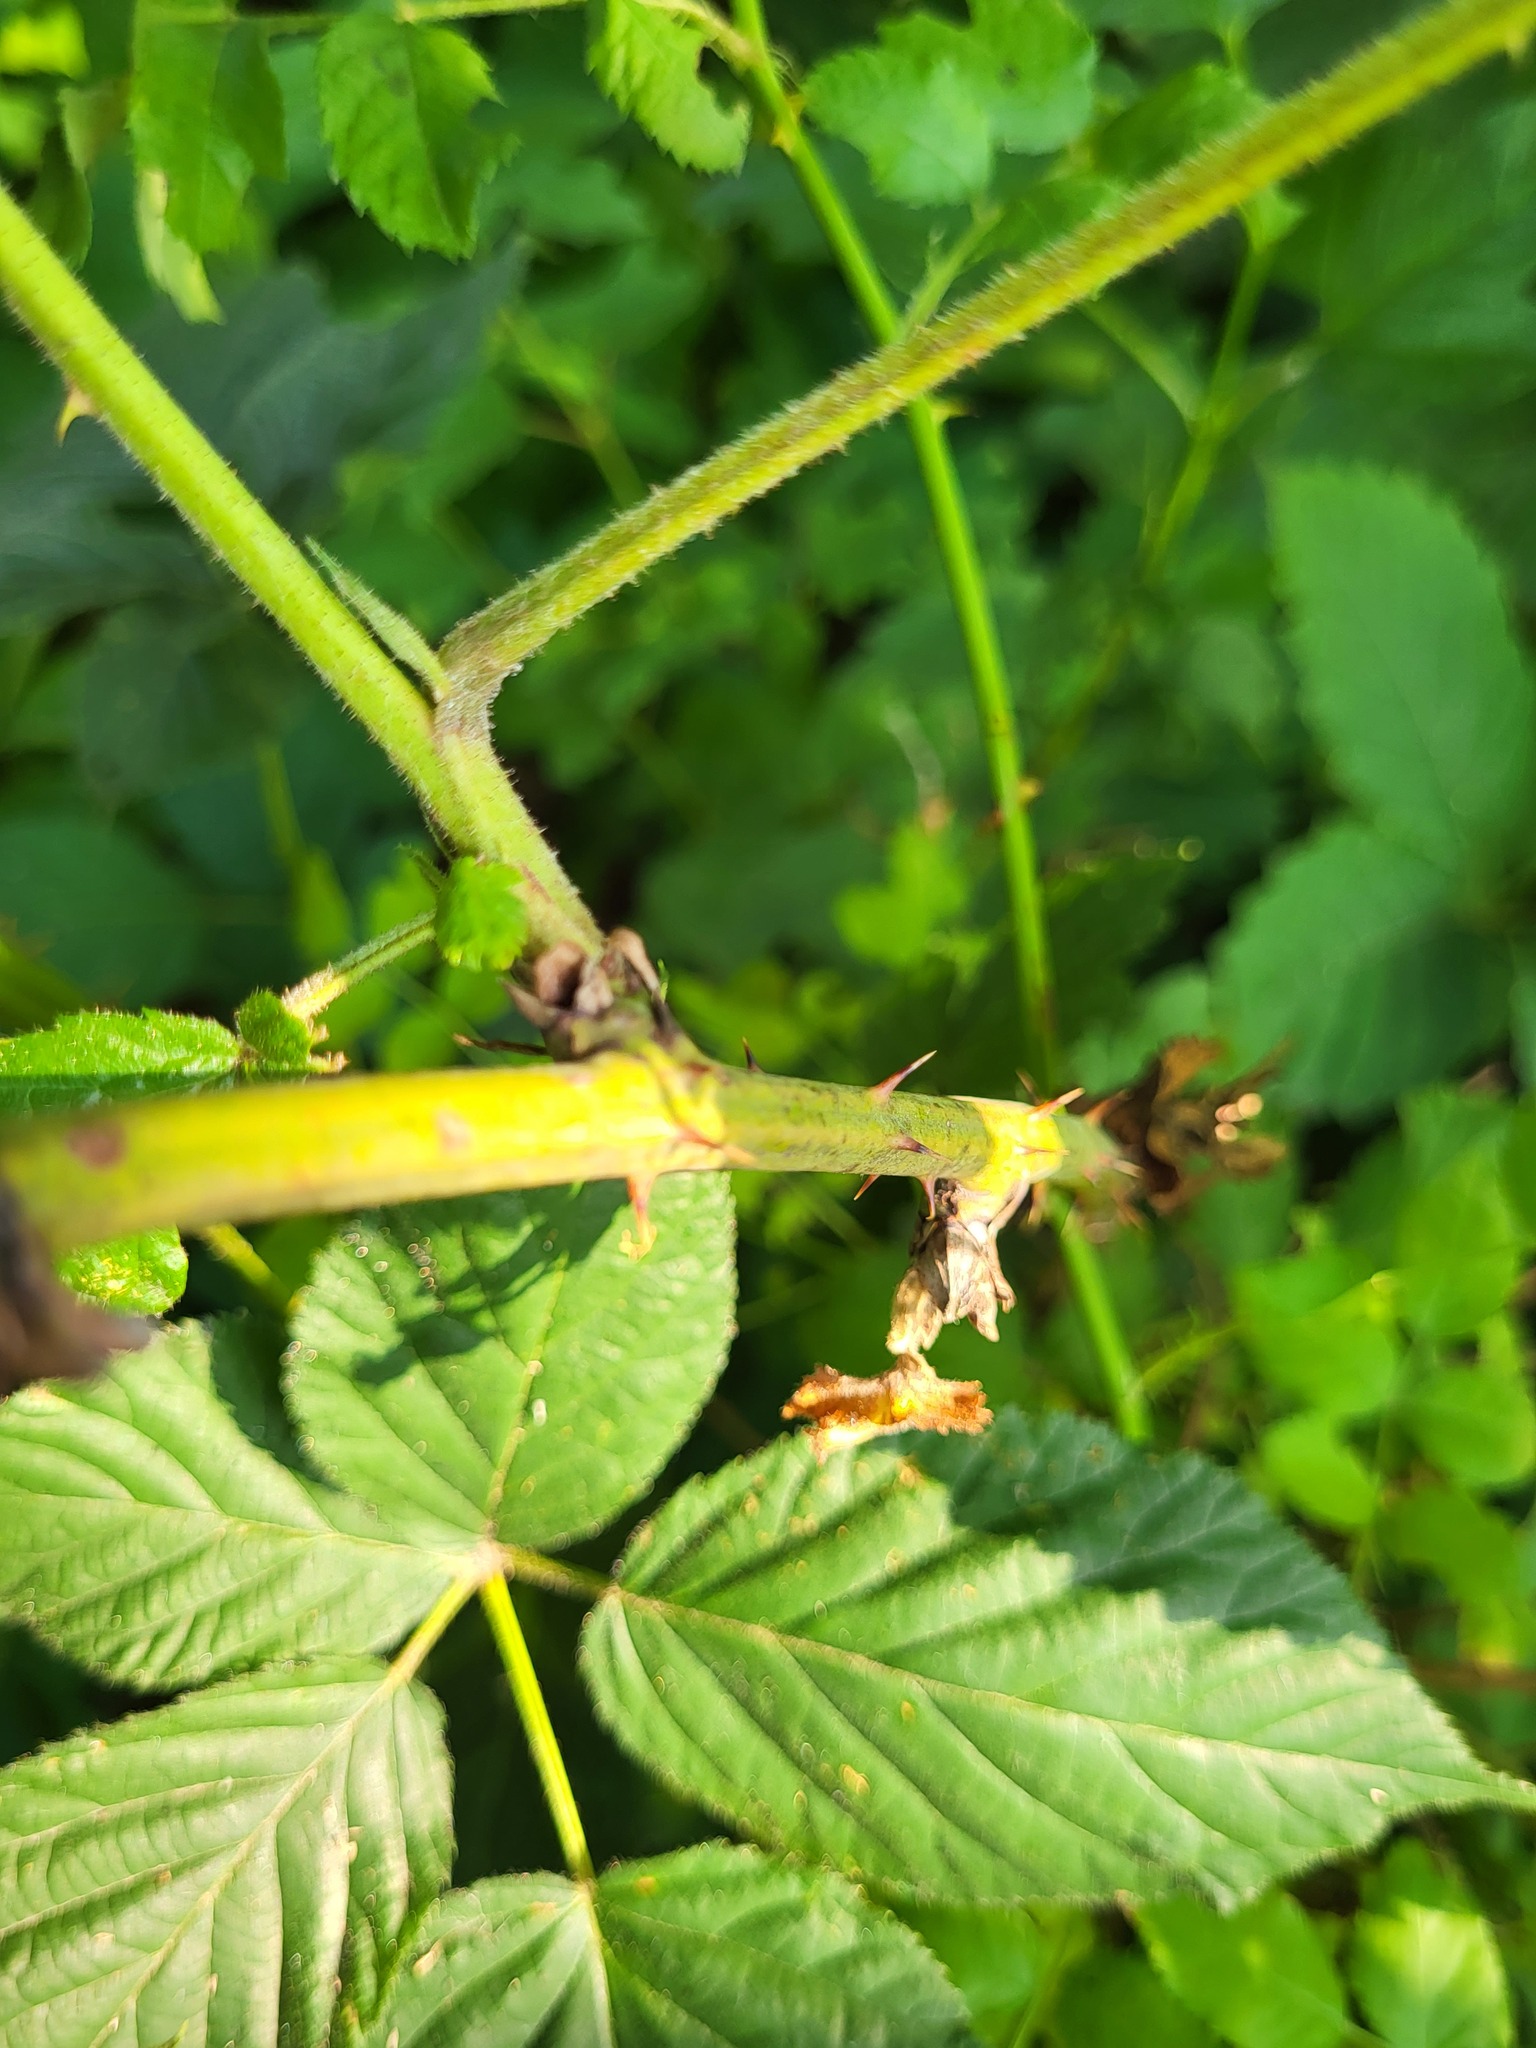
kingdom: Plantae
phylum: Tracheophyta
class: Magnoliopsida
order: Rosales
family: Rosaceae
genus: Rubus
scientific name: Rubus allegheniensis
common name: Allegheny blackberry
